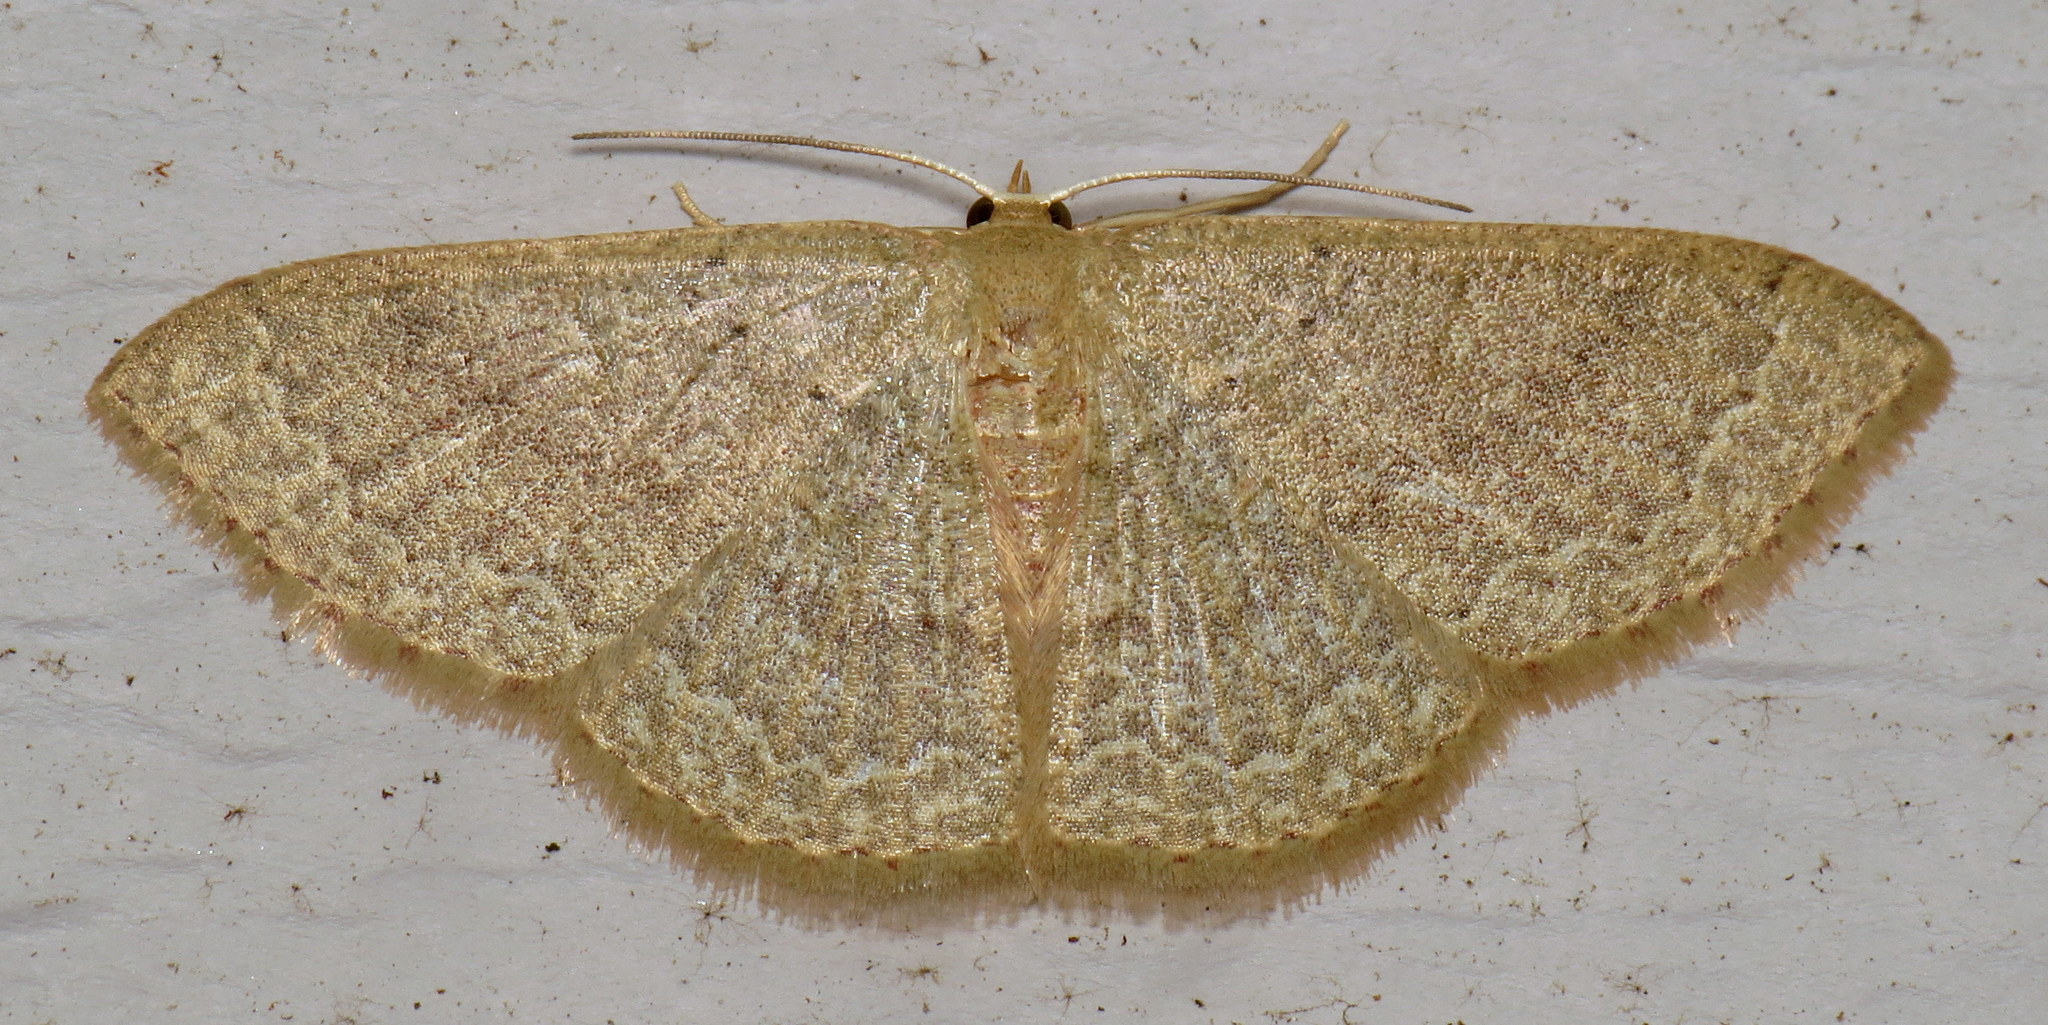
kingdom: Animalia
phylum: Arthropoda
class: Insecta
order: Lepidoptera
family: Geometridae
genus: Pleuroprucha
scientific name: Pleuroprucha insulsaria
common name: Common tan wave
